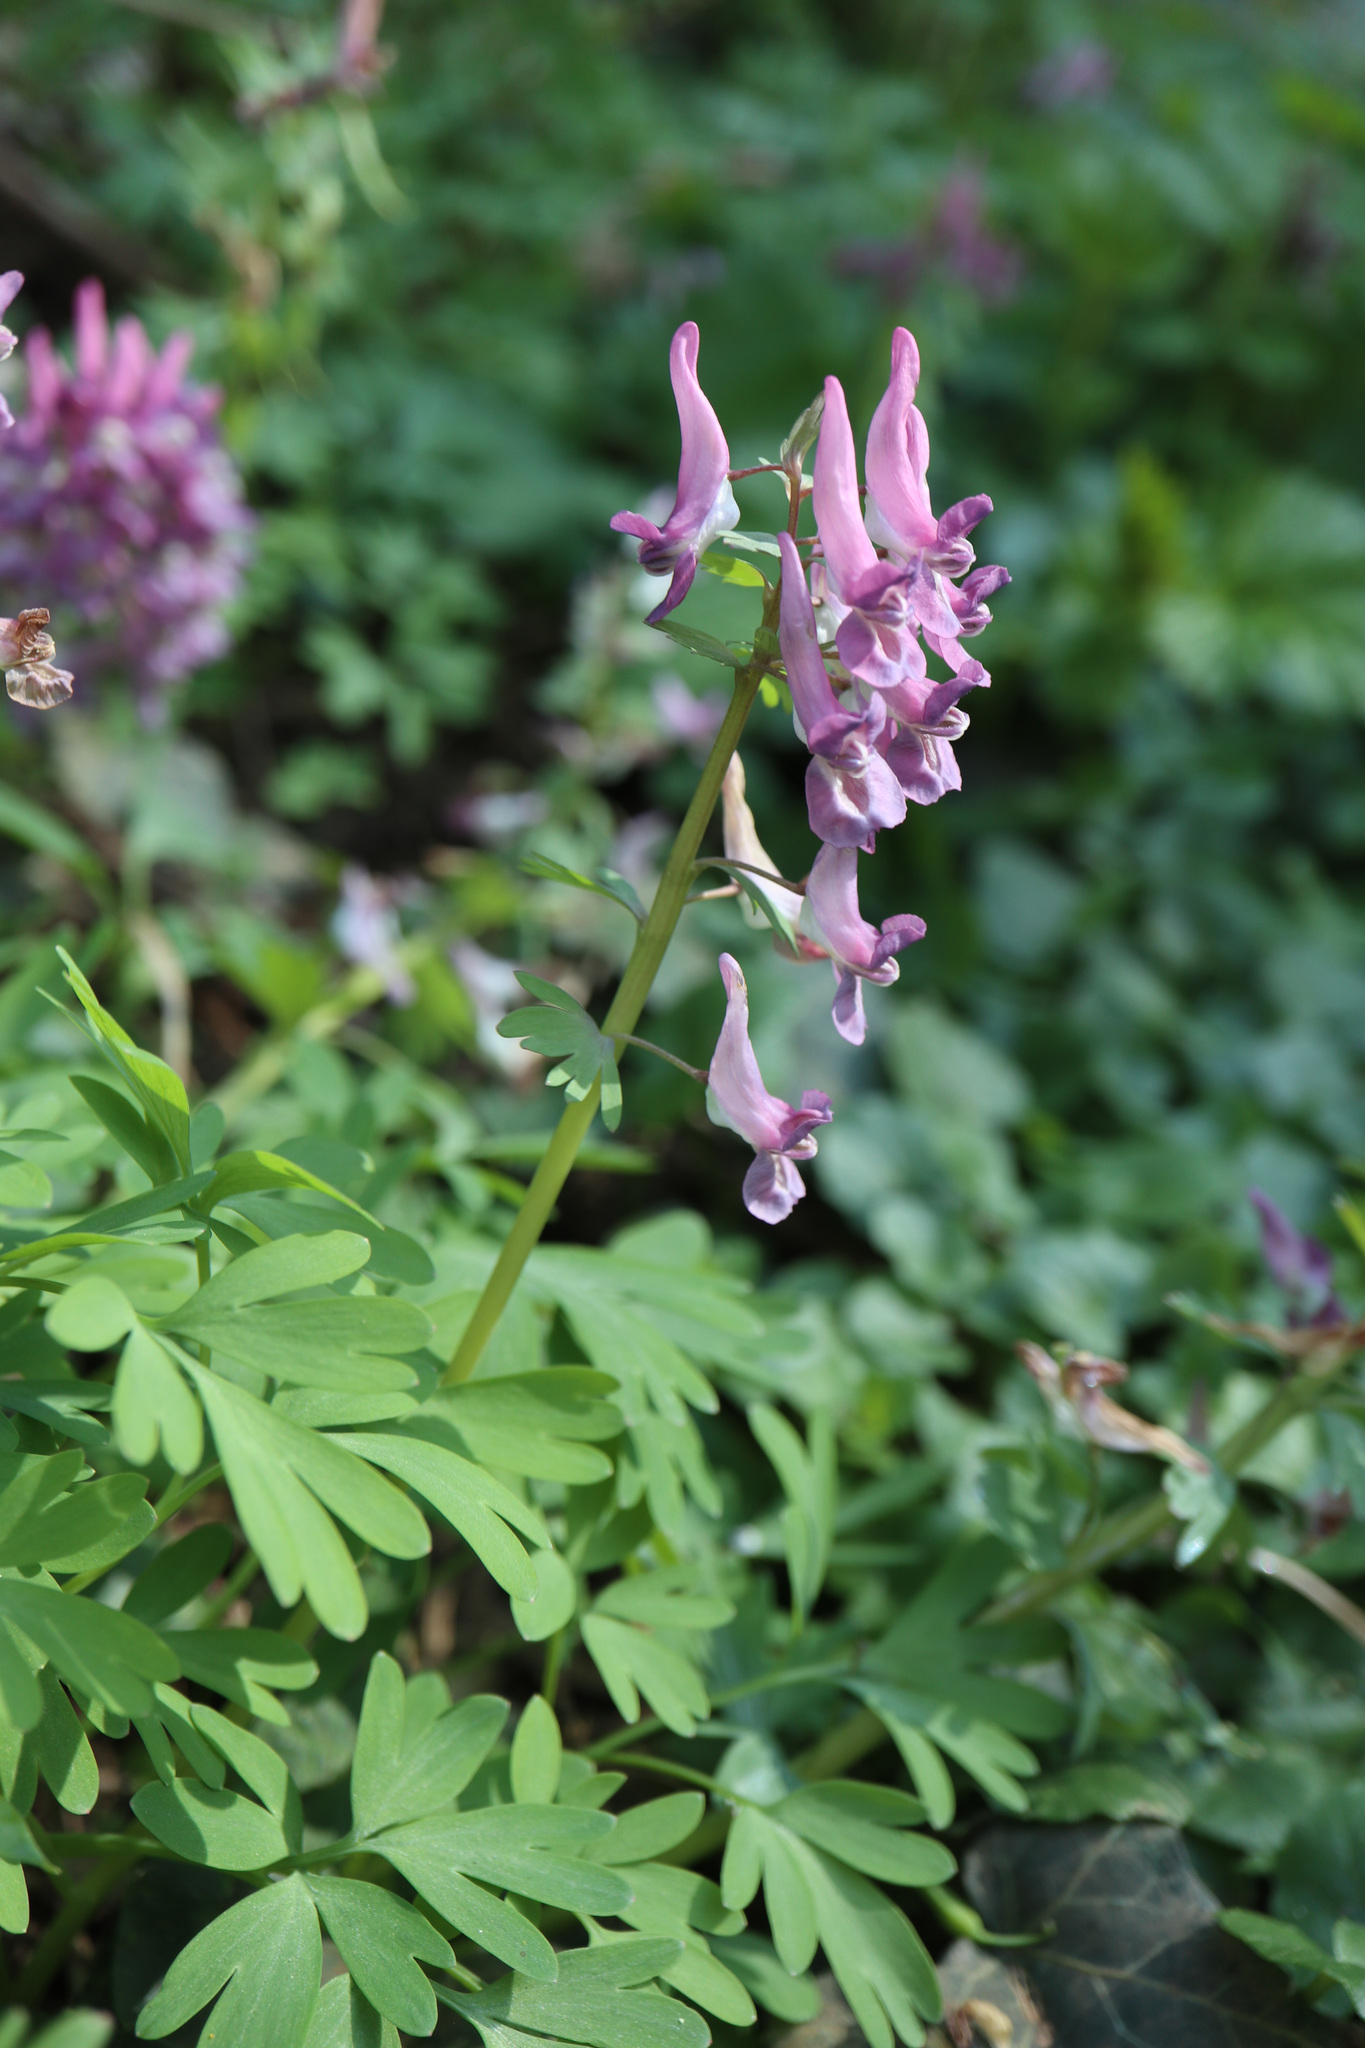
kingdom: Plantae
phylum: Tracheophyta
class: Magnoliopsida
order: Ranunculales
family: Papaveraceae
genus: Corydalis
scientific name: Corydalis solida
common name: Bird-in-a-bush
